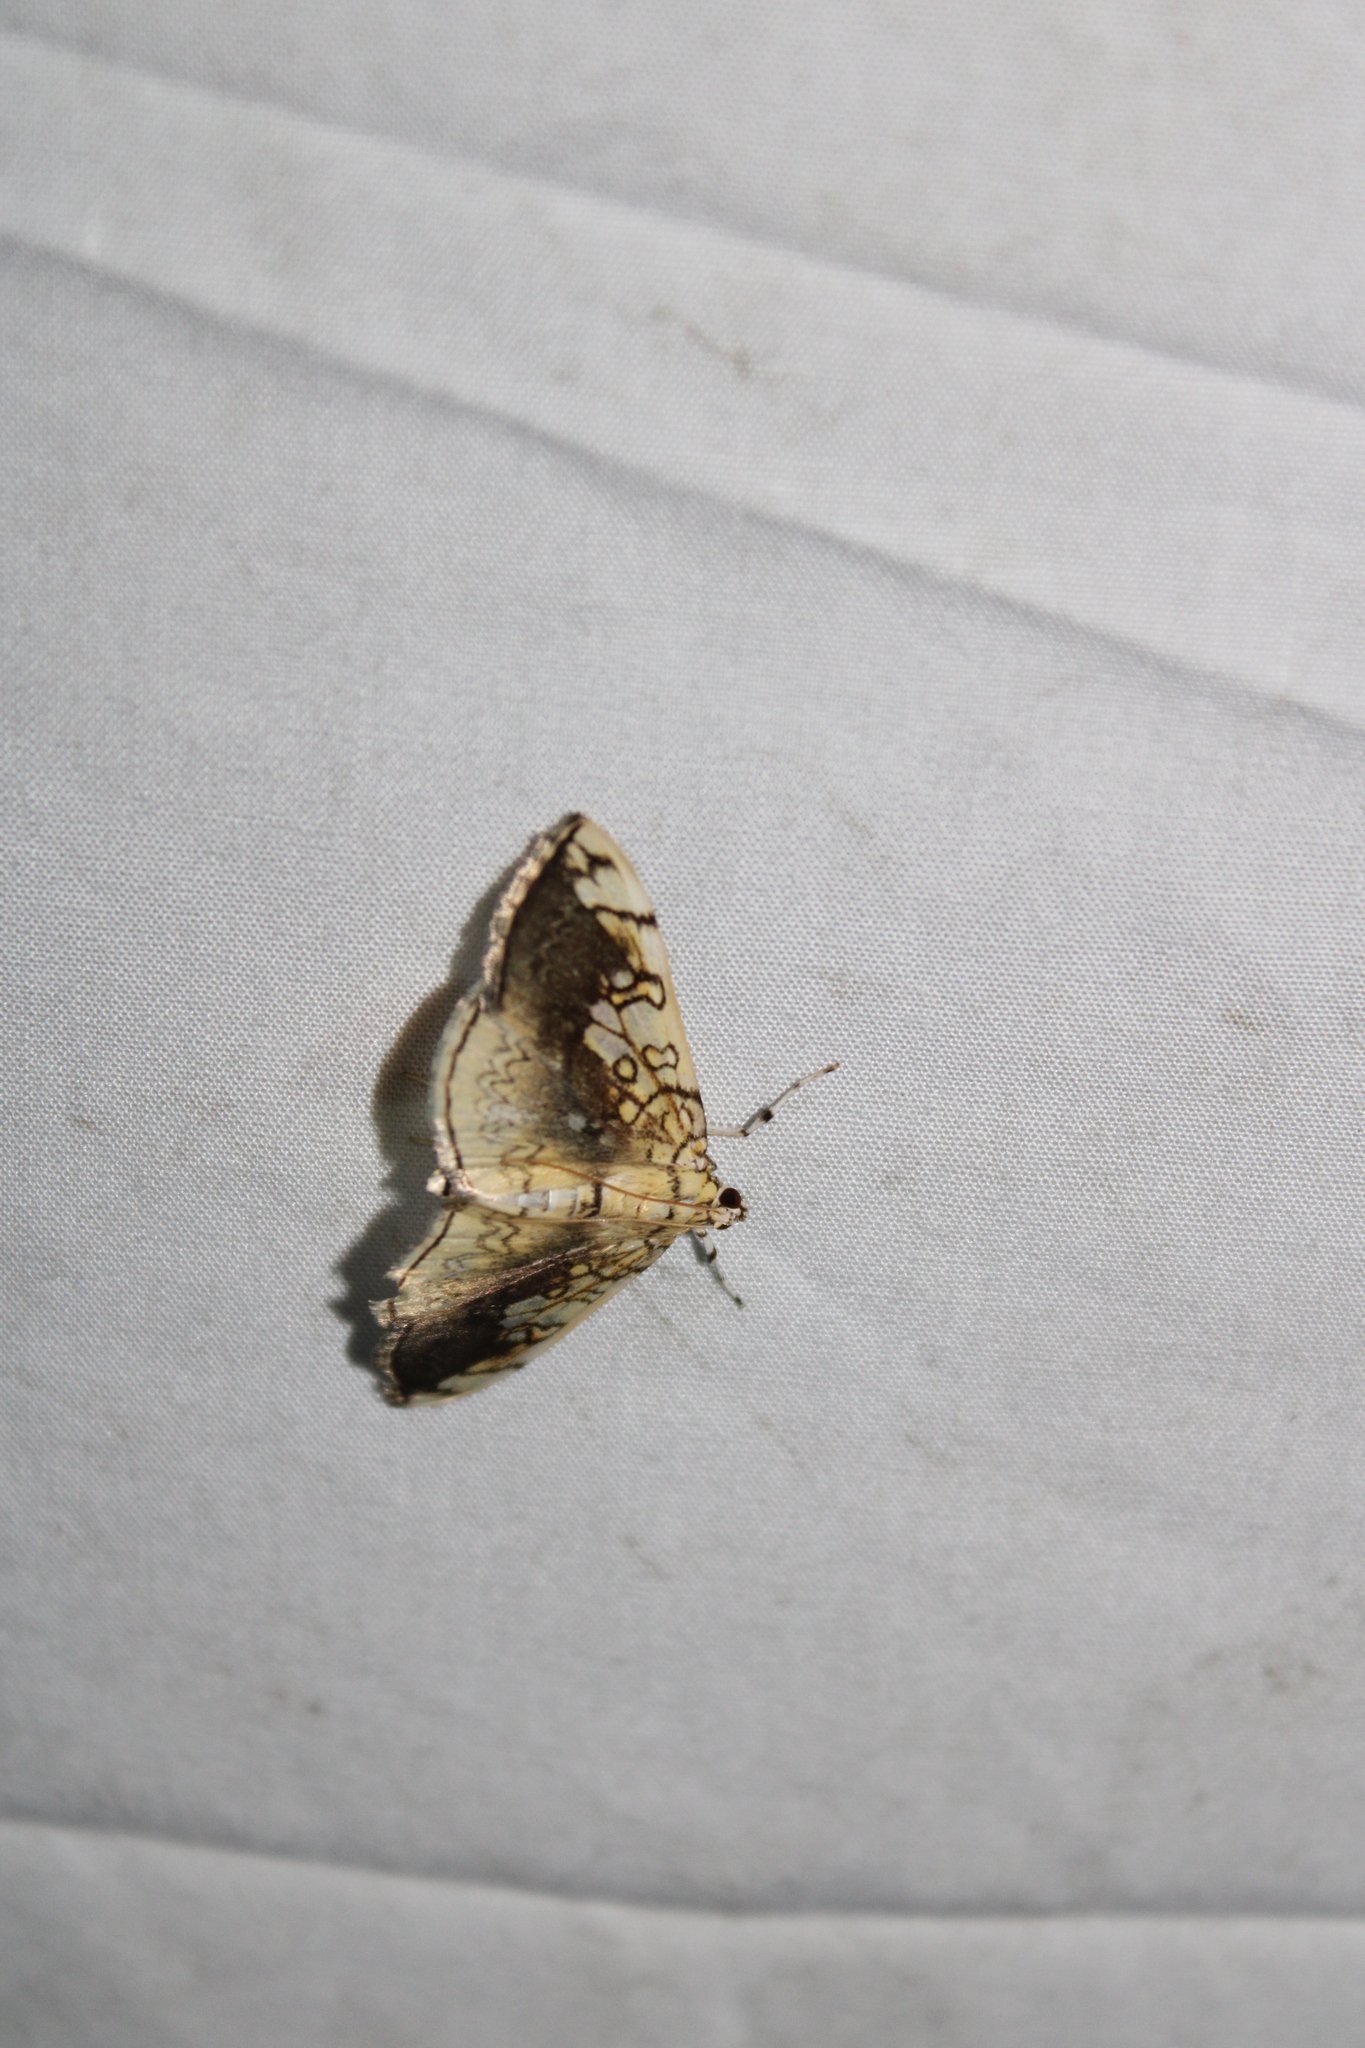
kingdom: Animalia
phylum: Arthropoda
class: Insecta
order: Lepidoptera
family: Crambidae
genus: Pantographa
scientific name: Pantographa limata
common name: Basswood leafroller moth
